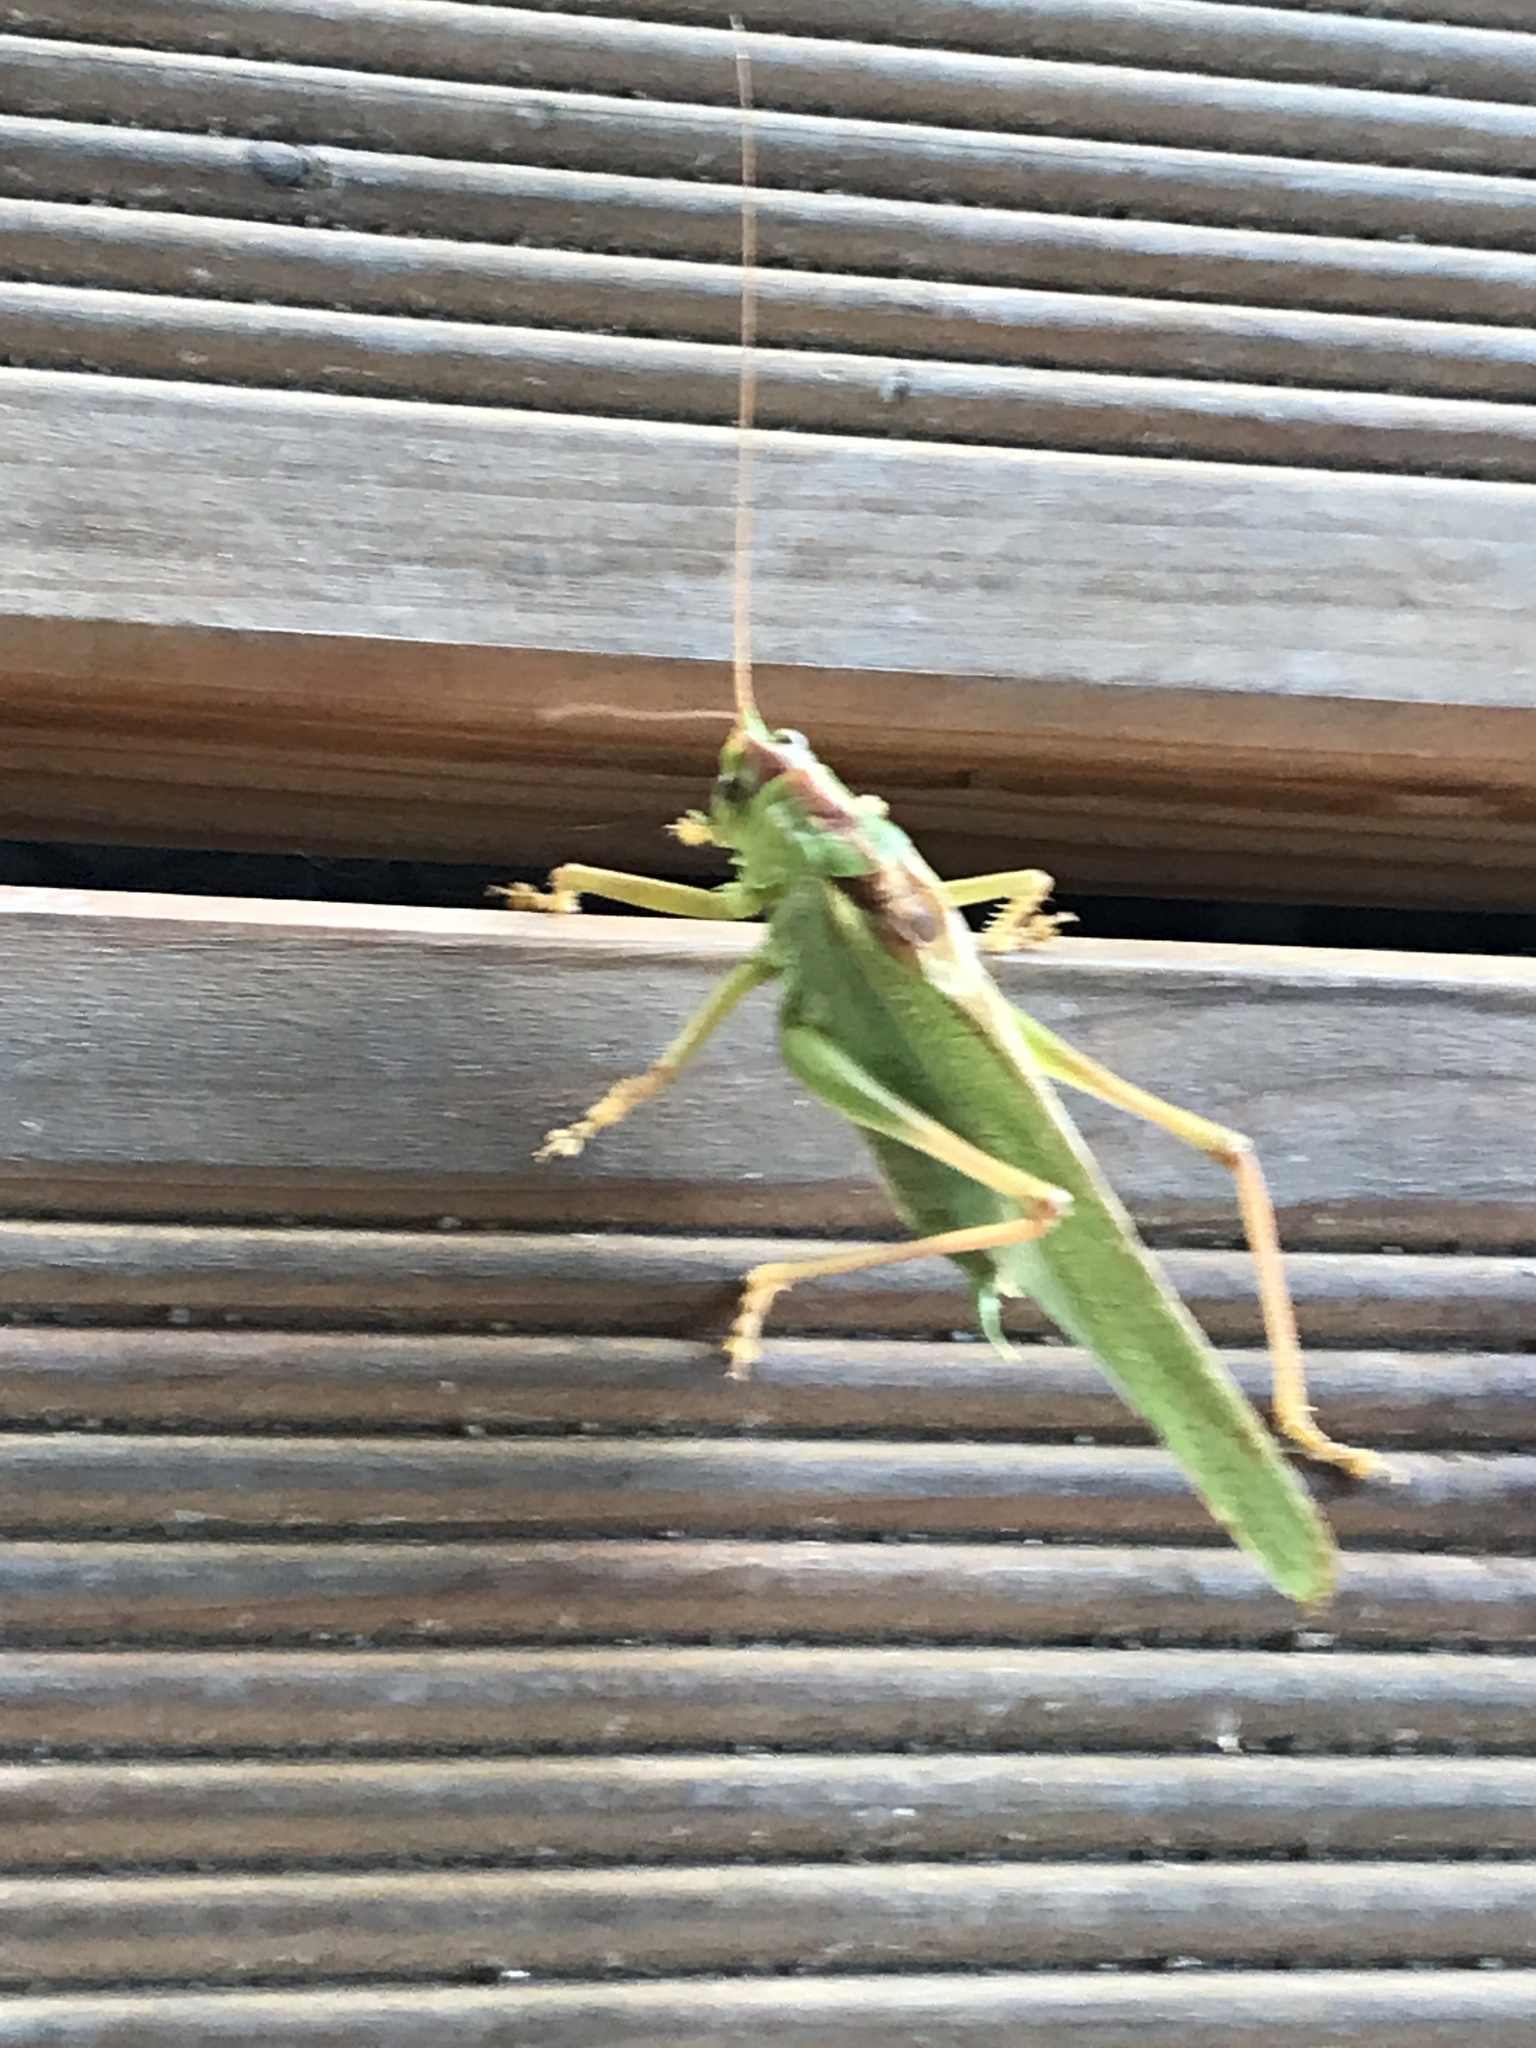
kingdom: Animalia
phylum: Arthropoda
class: Insecta
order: Orthoptera
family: Tettigoniidae
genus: Tettigonia
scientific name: Tettigonia viridissima
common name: Great green bush-cricket
